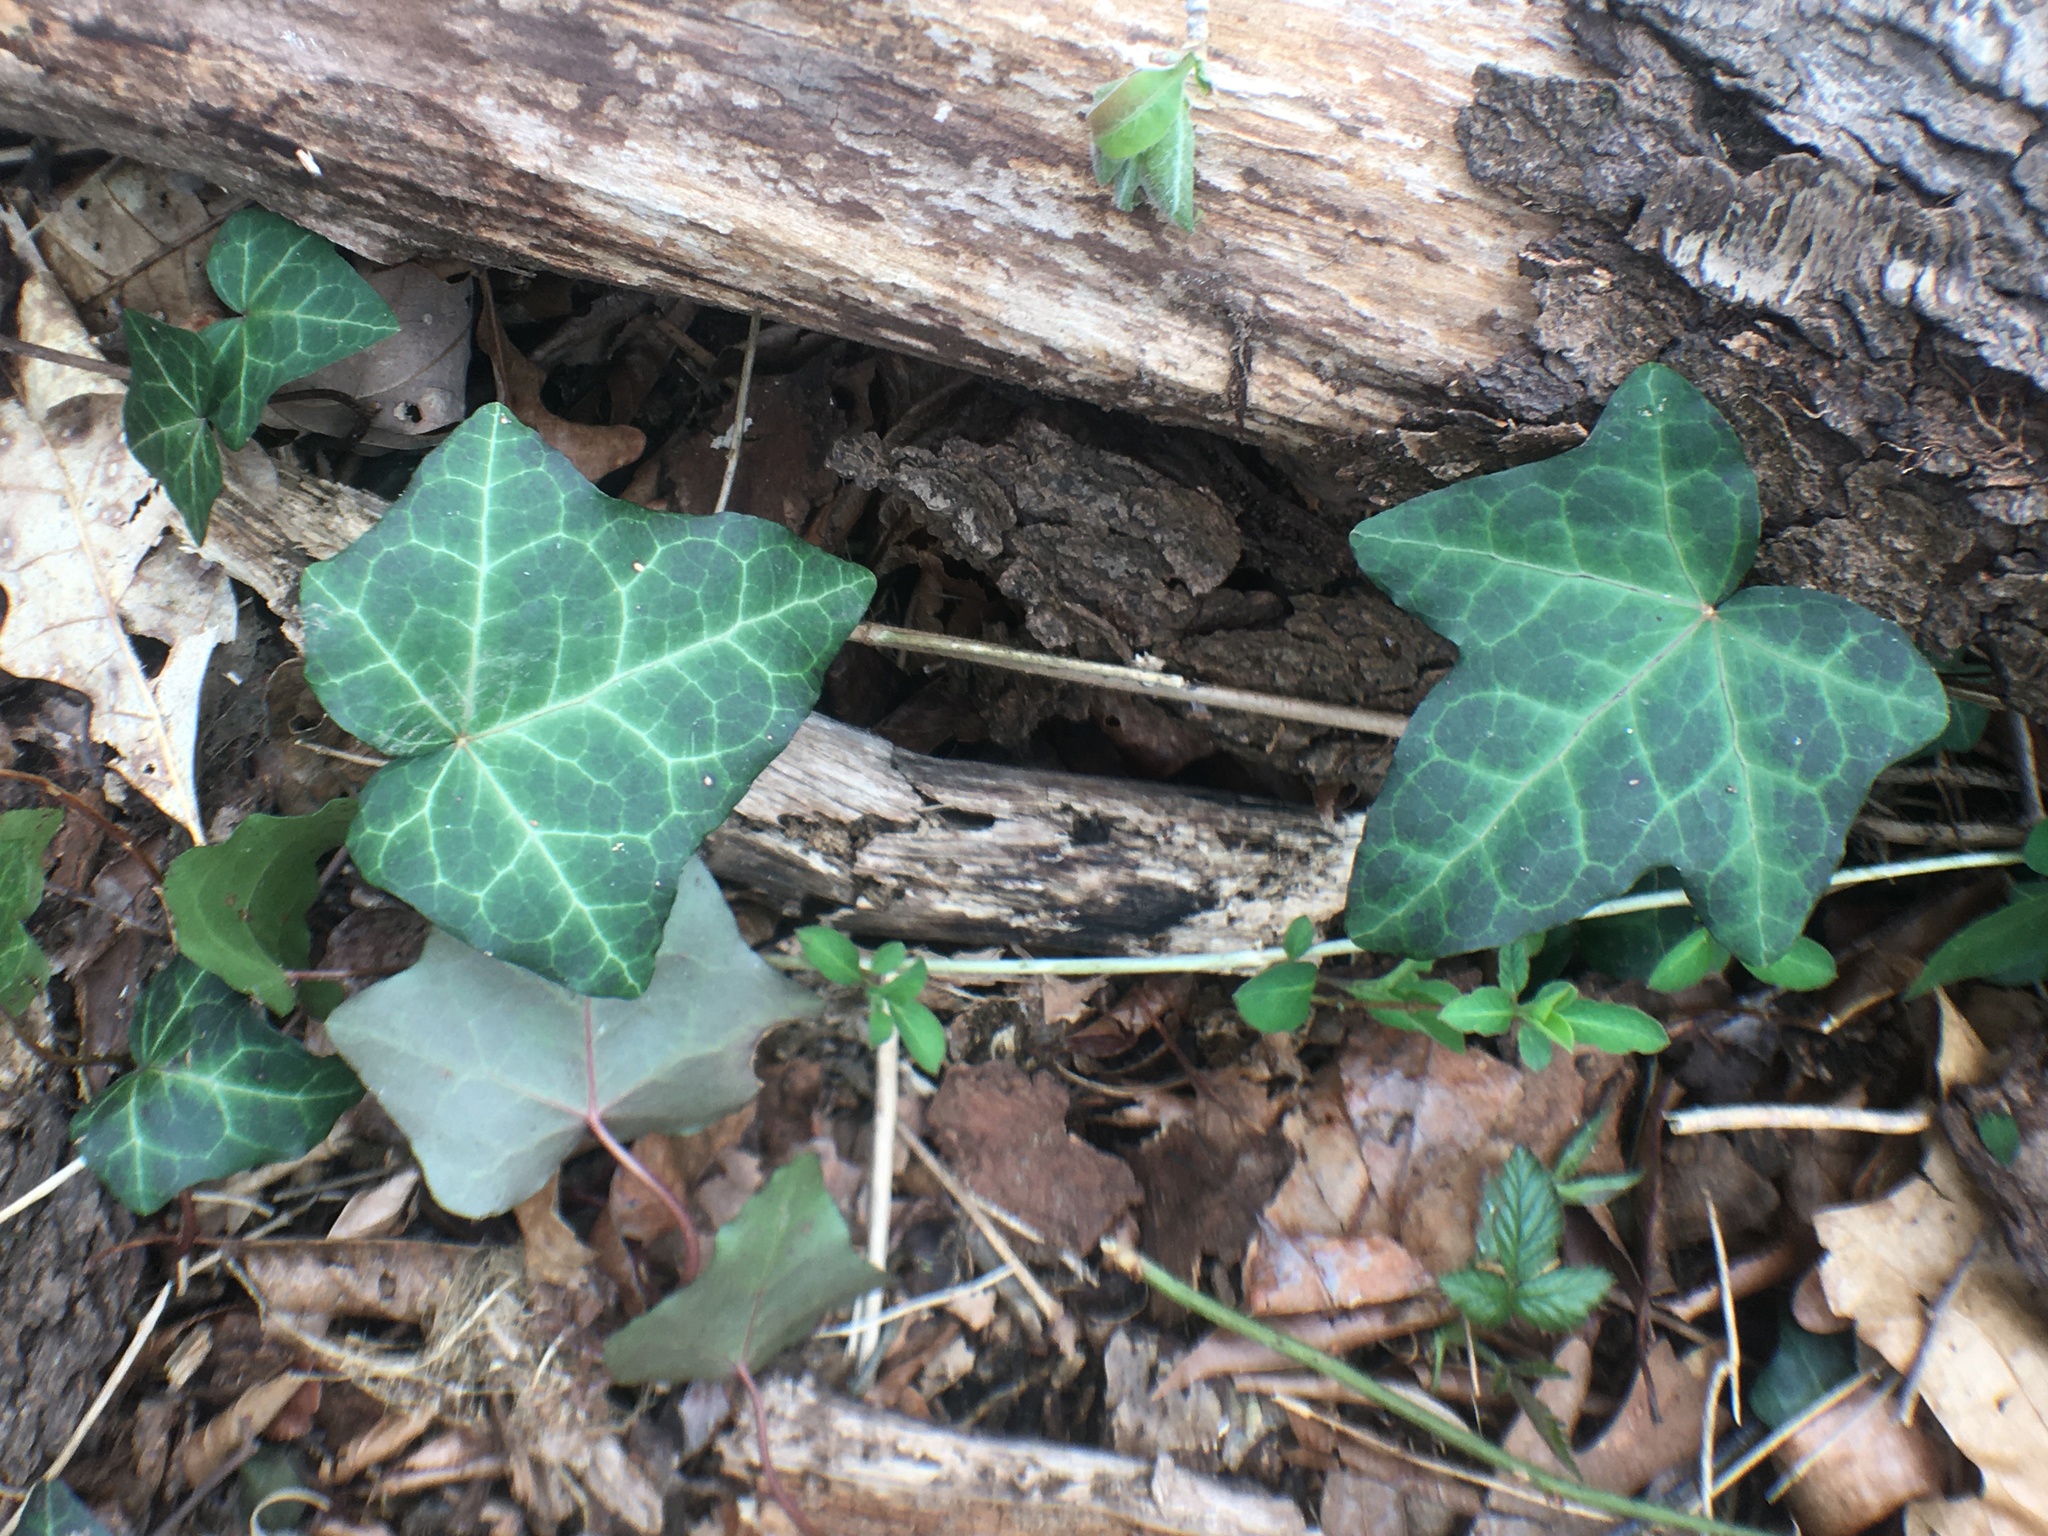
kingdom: Plantae
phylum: Tracheophyta
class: Magnoliopsida
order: Apiales
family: Araliaceae
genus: Hedera
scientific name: Hedera helix
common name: Ivy
